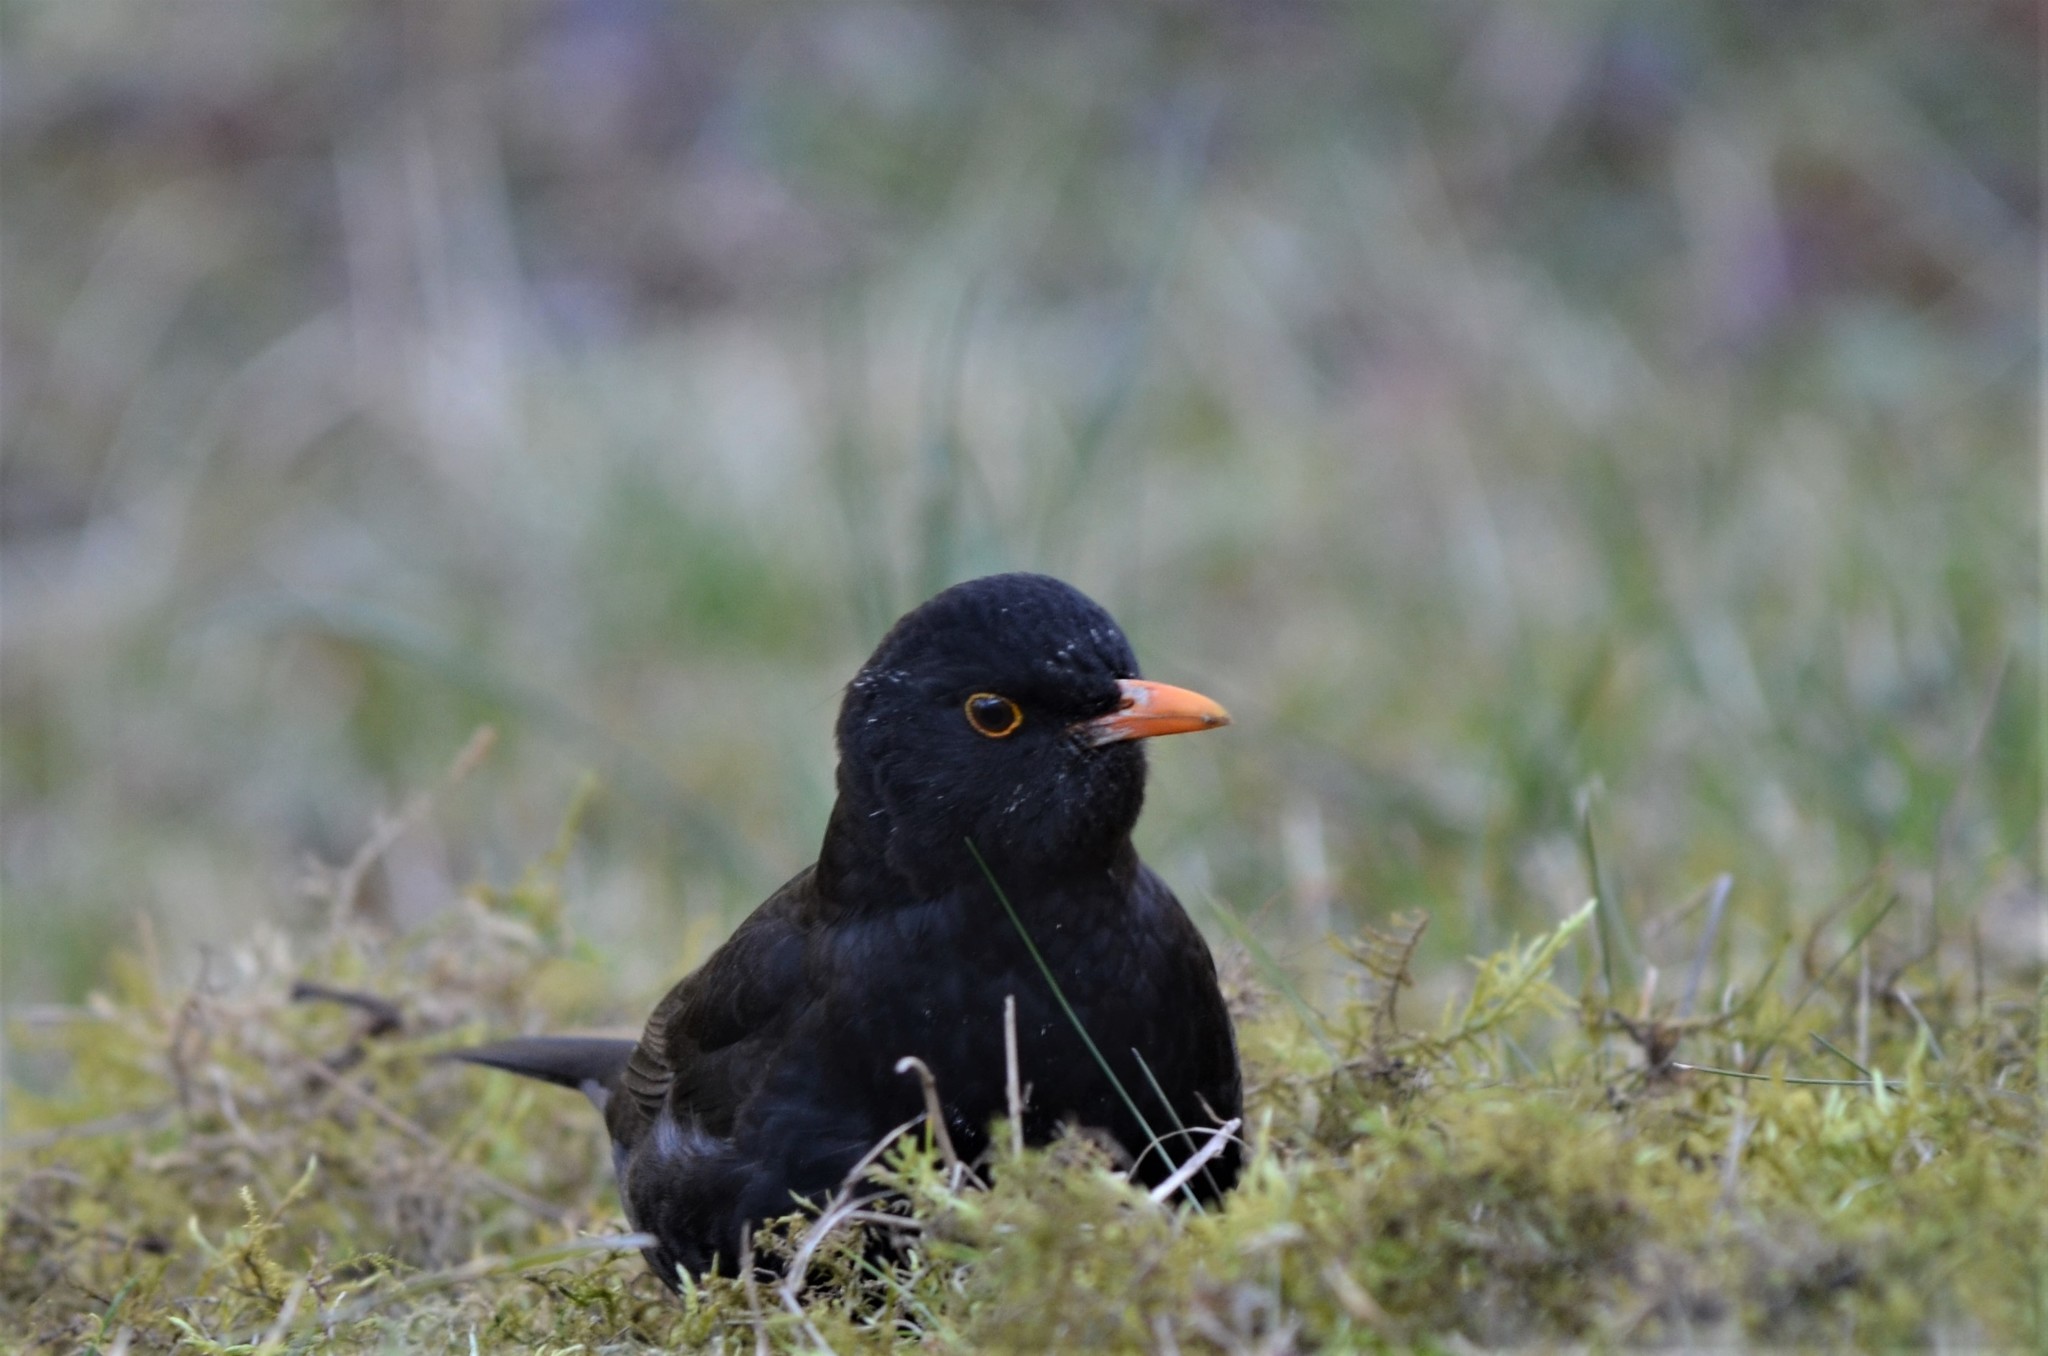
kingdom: Animalia
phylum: Chordata
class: Aves
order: Passeriformes
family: Turdidae
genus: Turdus
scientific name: Turdus merula
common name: Common blackbird
